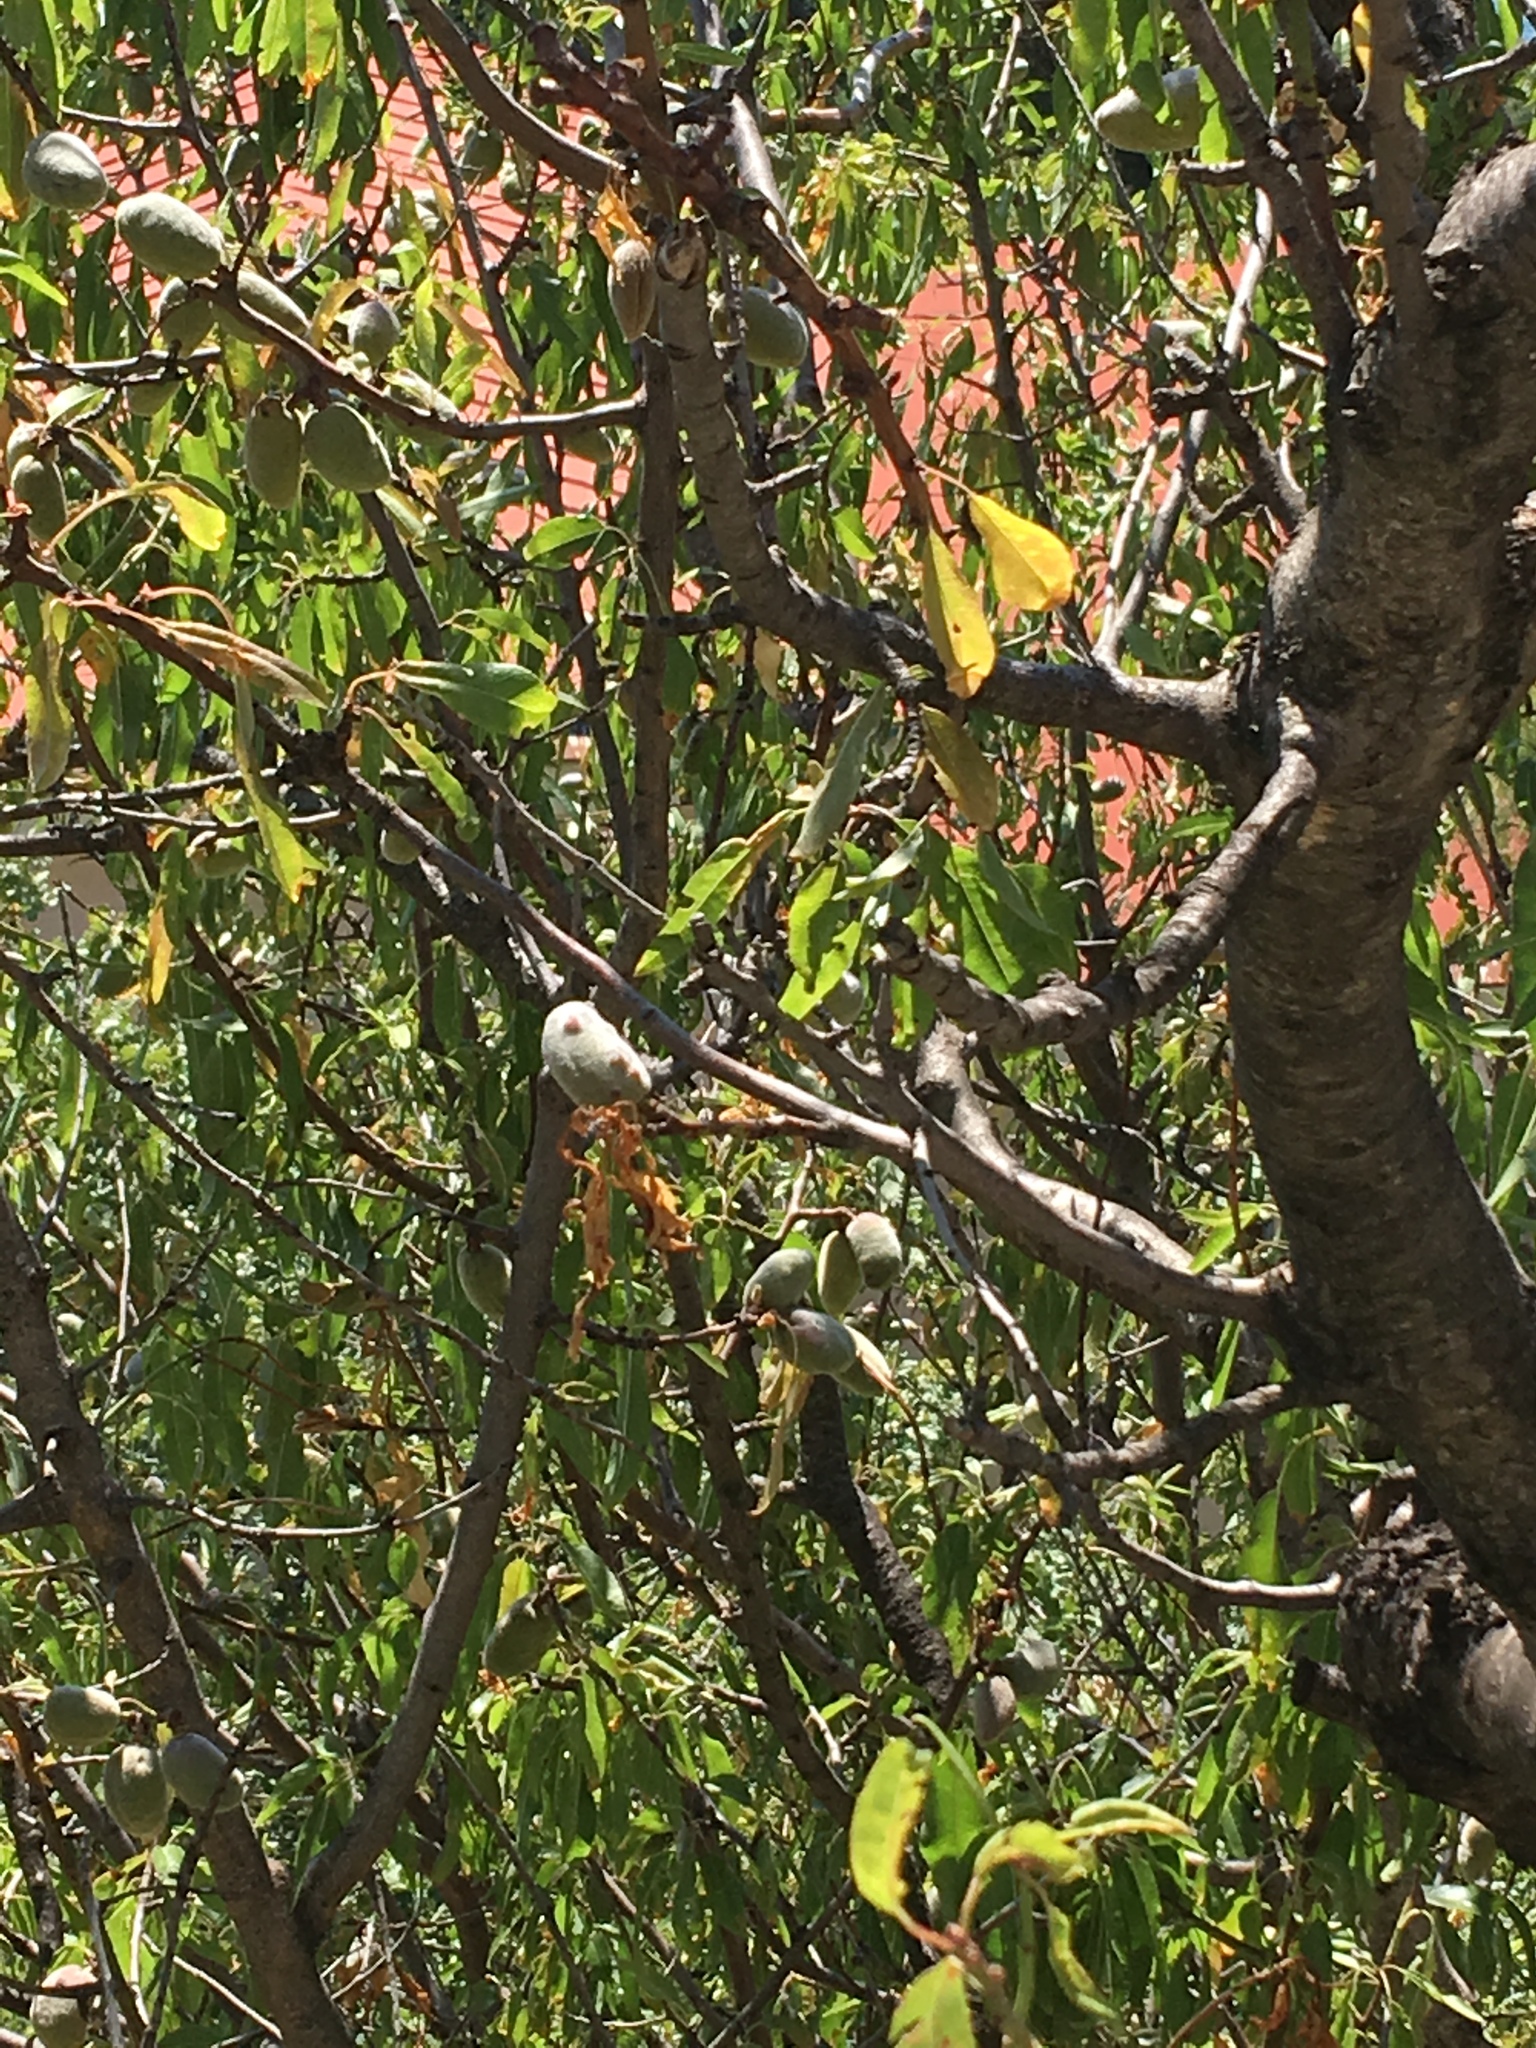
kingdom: Plantae
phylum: Tracheophyta
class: Magnoliopsida
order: Rosales
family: Rosaceae
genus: Prunus
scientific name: Prunus amygdalus
